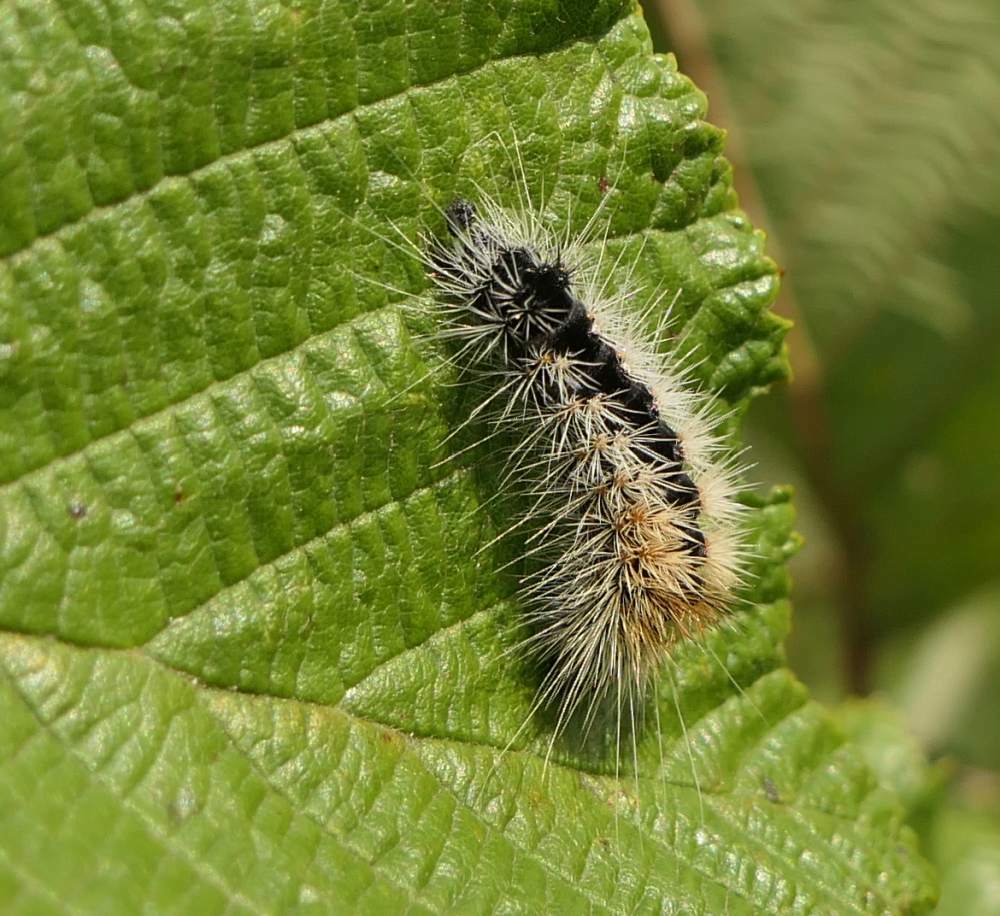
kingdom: Animalia
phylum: Arthropoda
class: Insecta
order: Lepidoptera
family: Noctuidae
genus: Acronicta
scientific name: Acronicta impressa
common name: Impressed dagger
